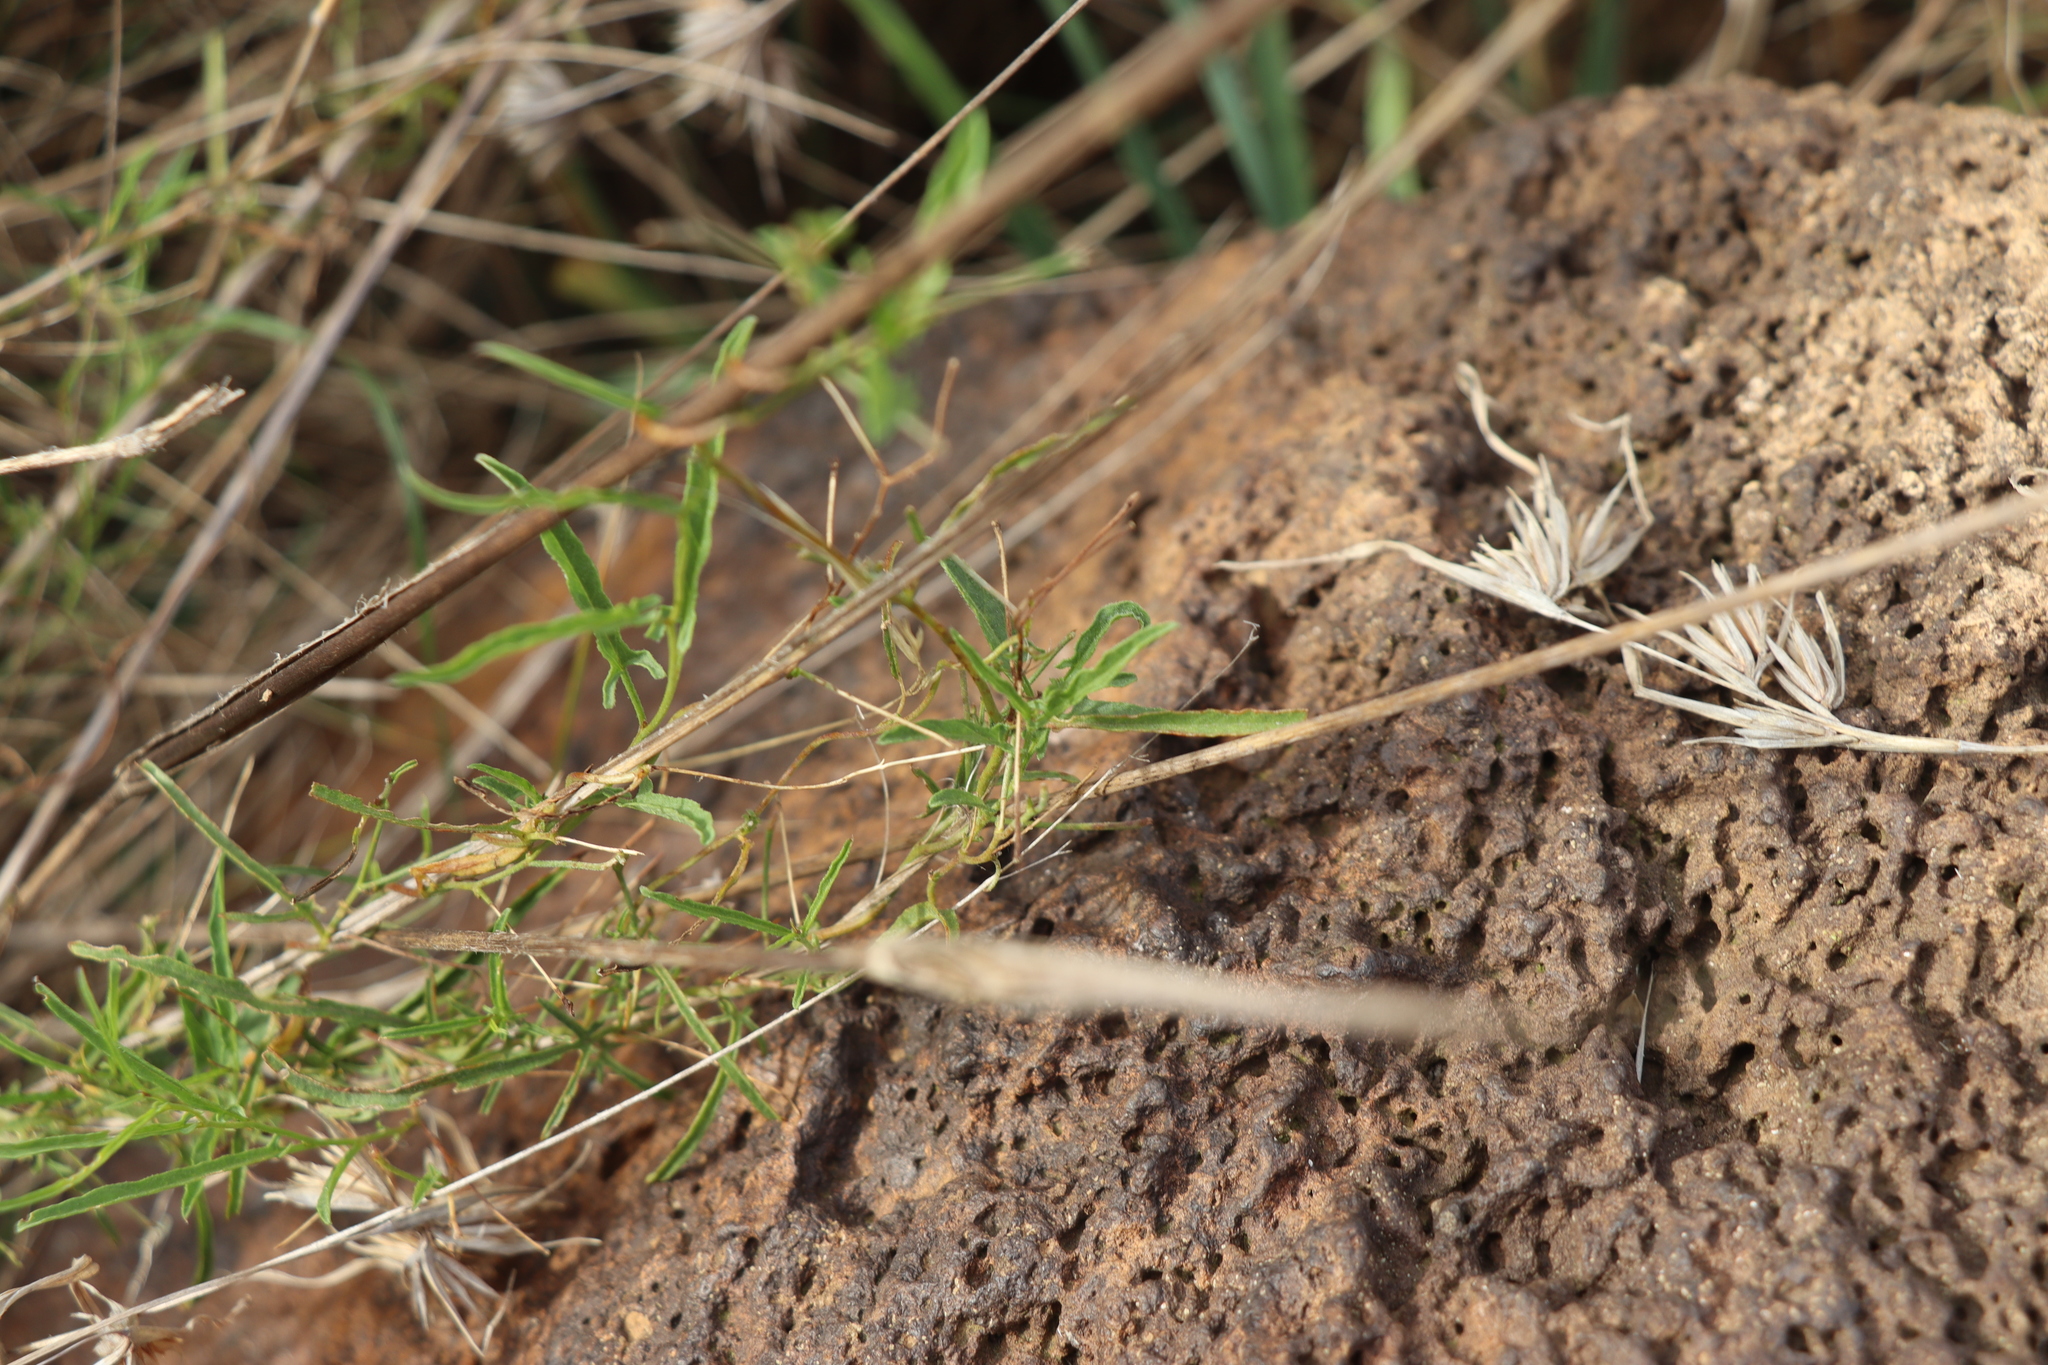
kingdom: Plantae
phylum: Tracheophyta
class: Magnoliopsida
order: Solanales
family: Convolvulaceae
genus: Convolvulus
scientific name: Convolvulus angustissimus
